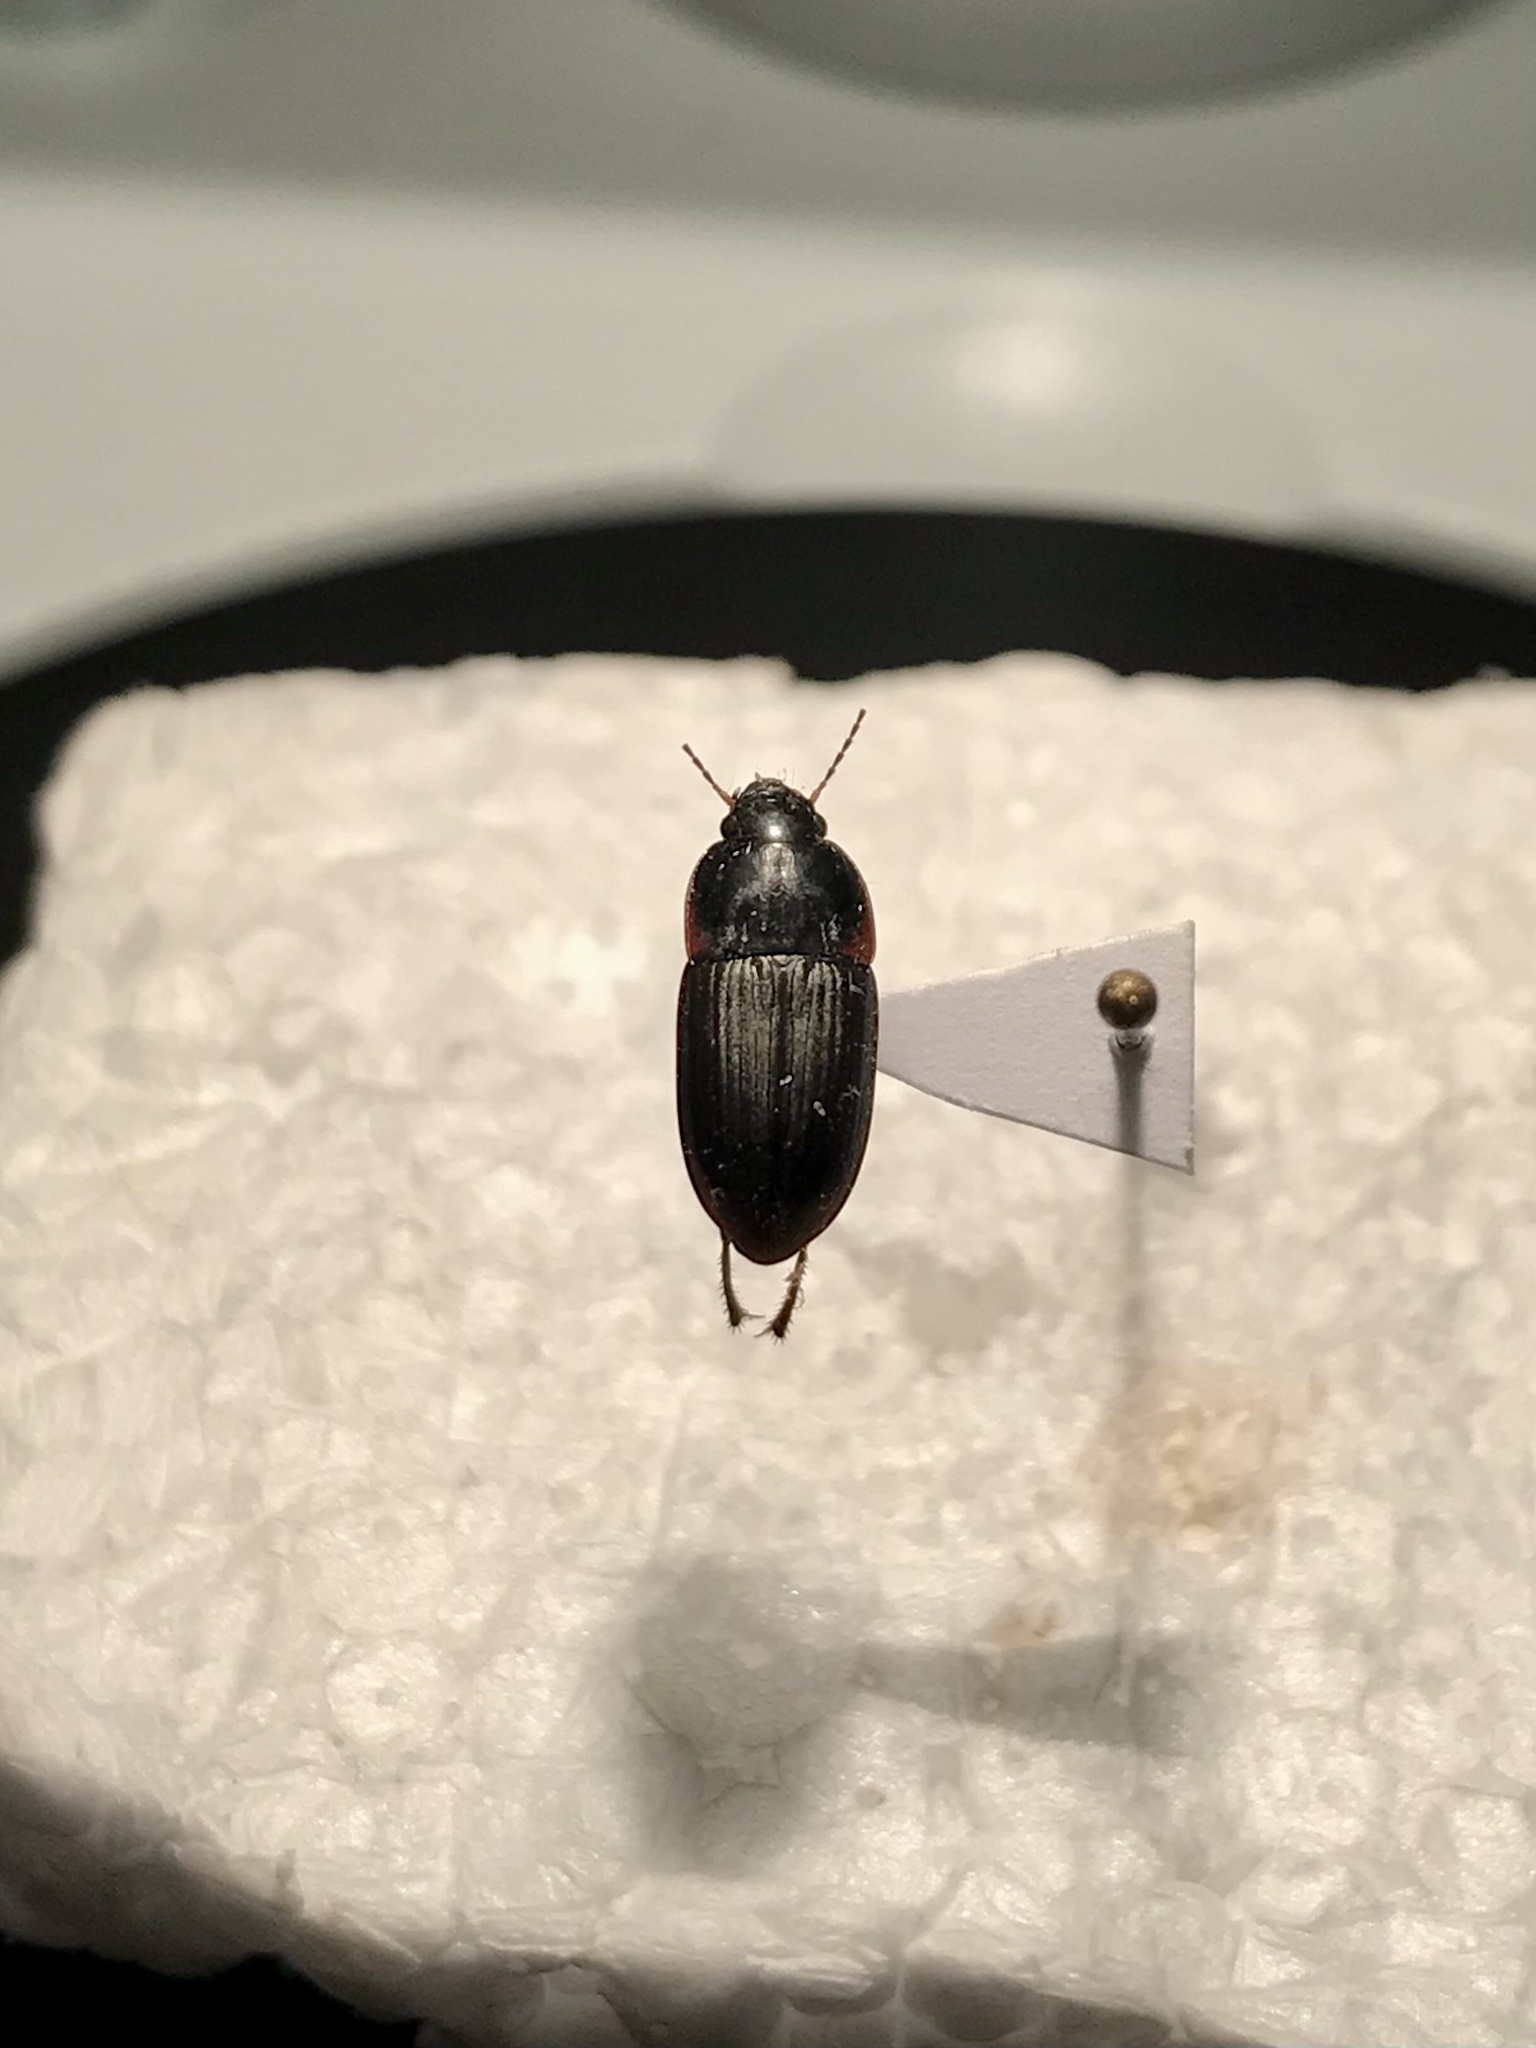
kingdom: Animalia
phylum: Arthropoda
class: Insecta
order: Coleoptera
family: Carabidae
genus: Anisodactylus
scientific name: Anisodactylus rusticus
